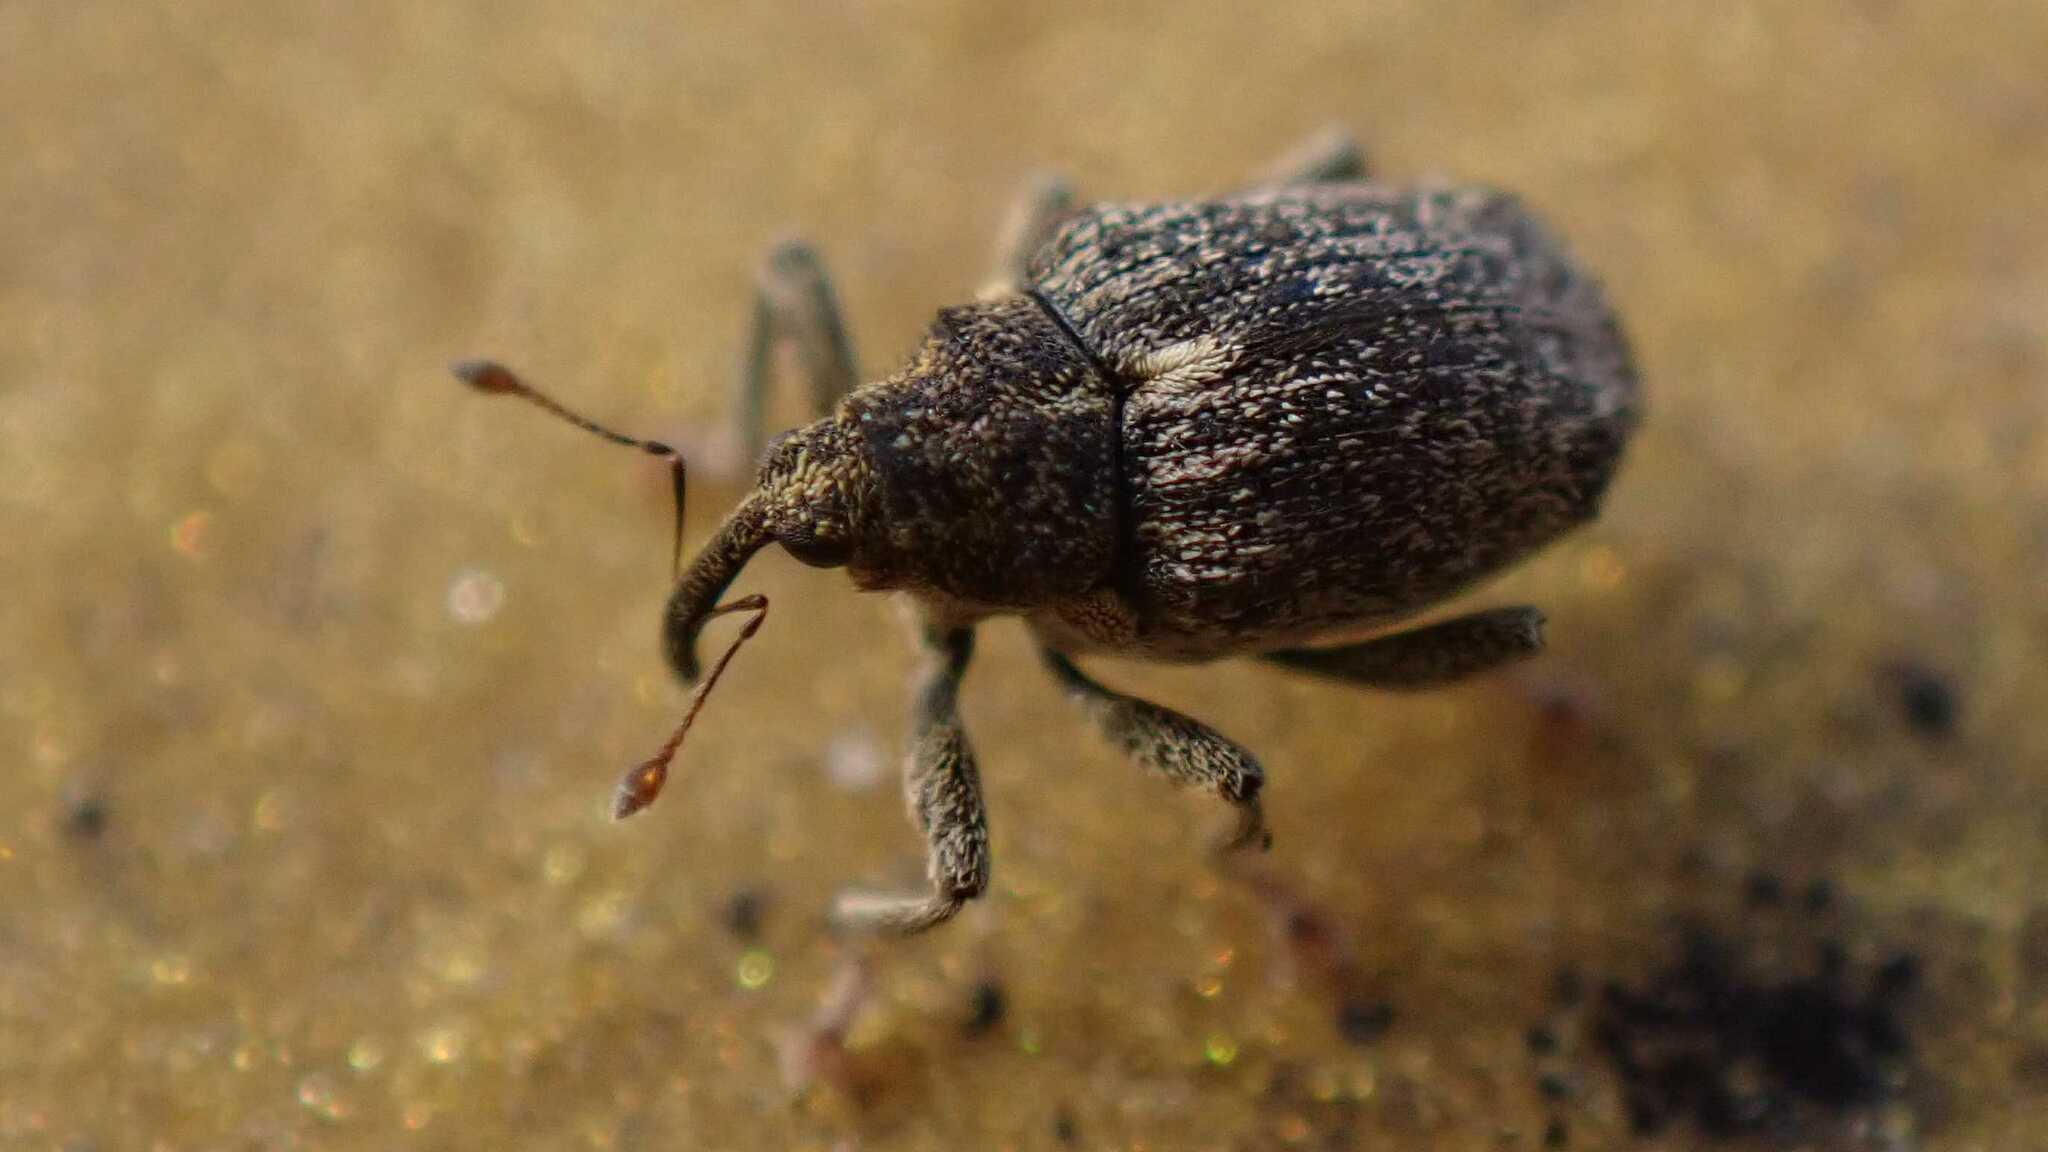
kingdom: Animalia
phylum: Arthropoda
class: Insecta
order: Coleoptera
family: Curculionidae
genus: Ceutorhynchus
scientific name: Ceutorhynchus pallidactylus
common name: Cabbage stem weavil
